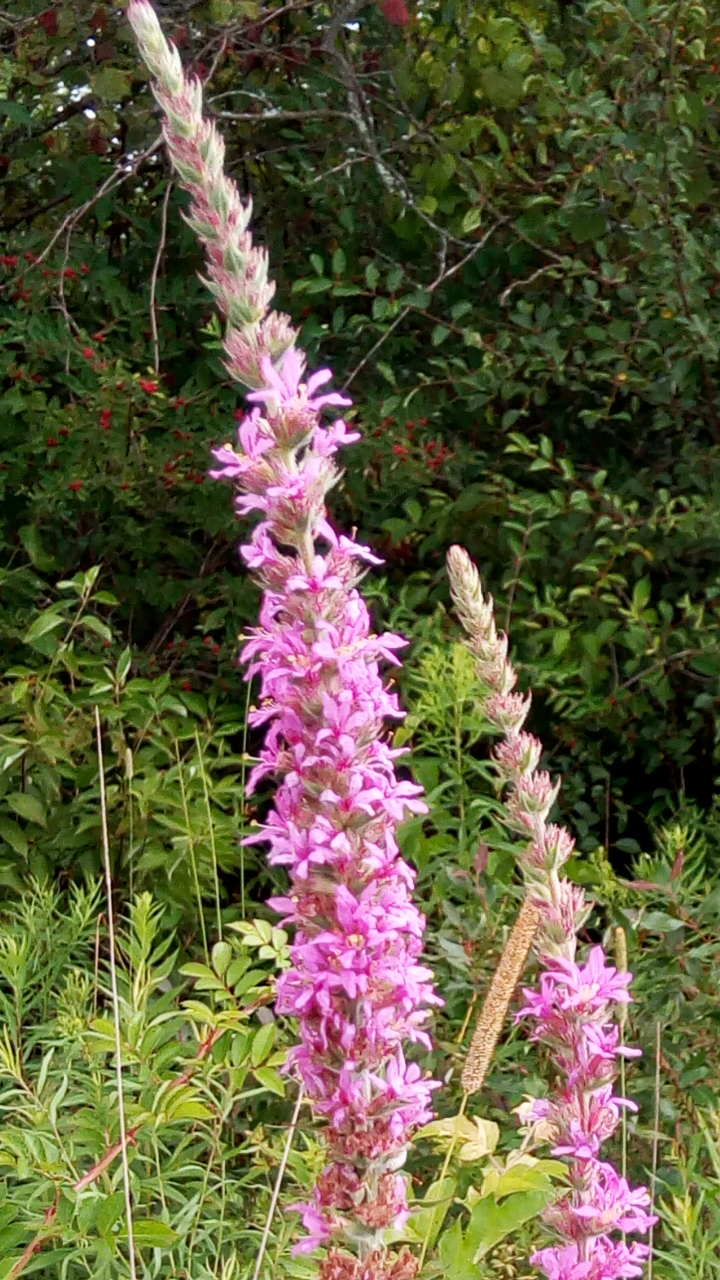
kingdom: Plantae
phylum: Tracheophyta
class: Magnoliopsida
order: Myrtales
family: Lythraceae
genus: Lythrum
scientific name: Lythrum salicaria
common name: Purple loosestrife
